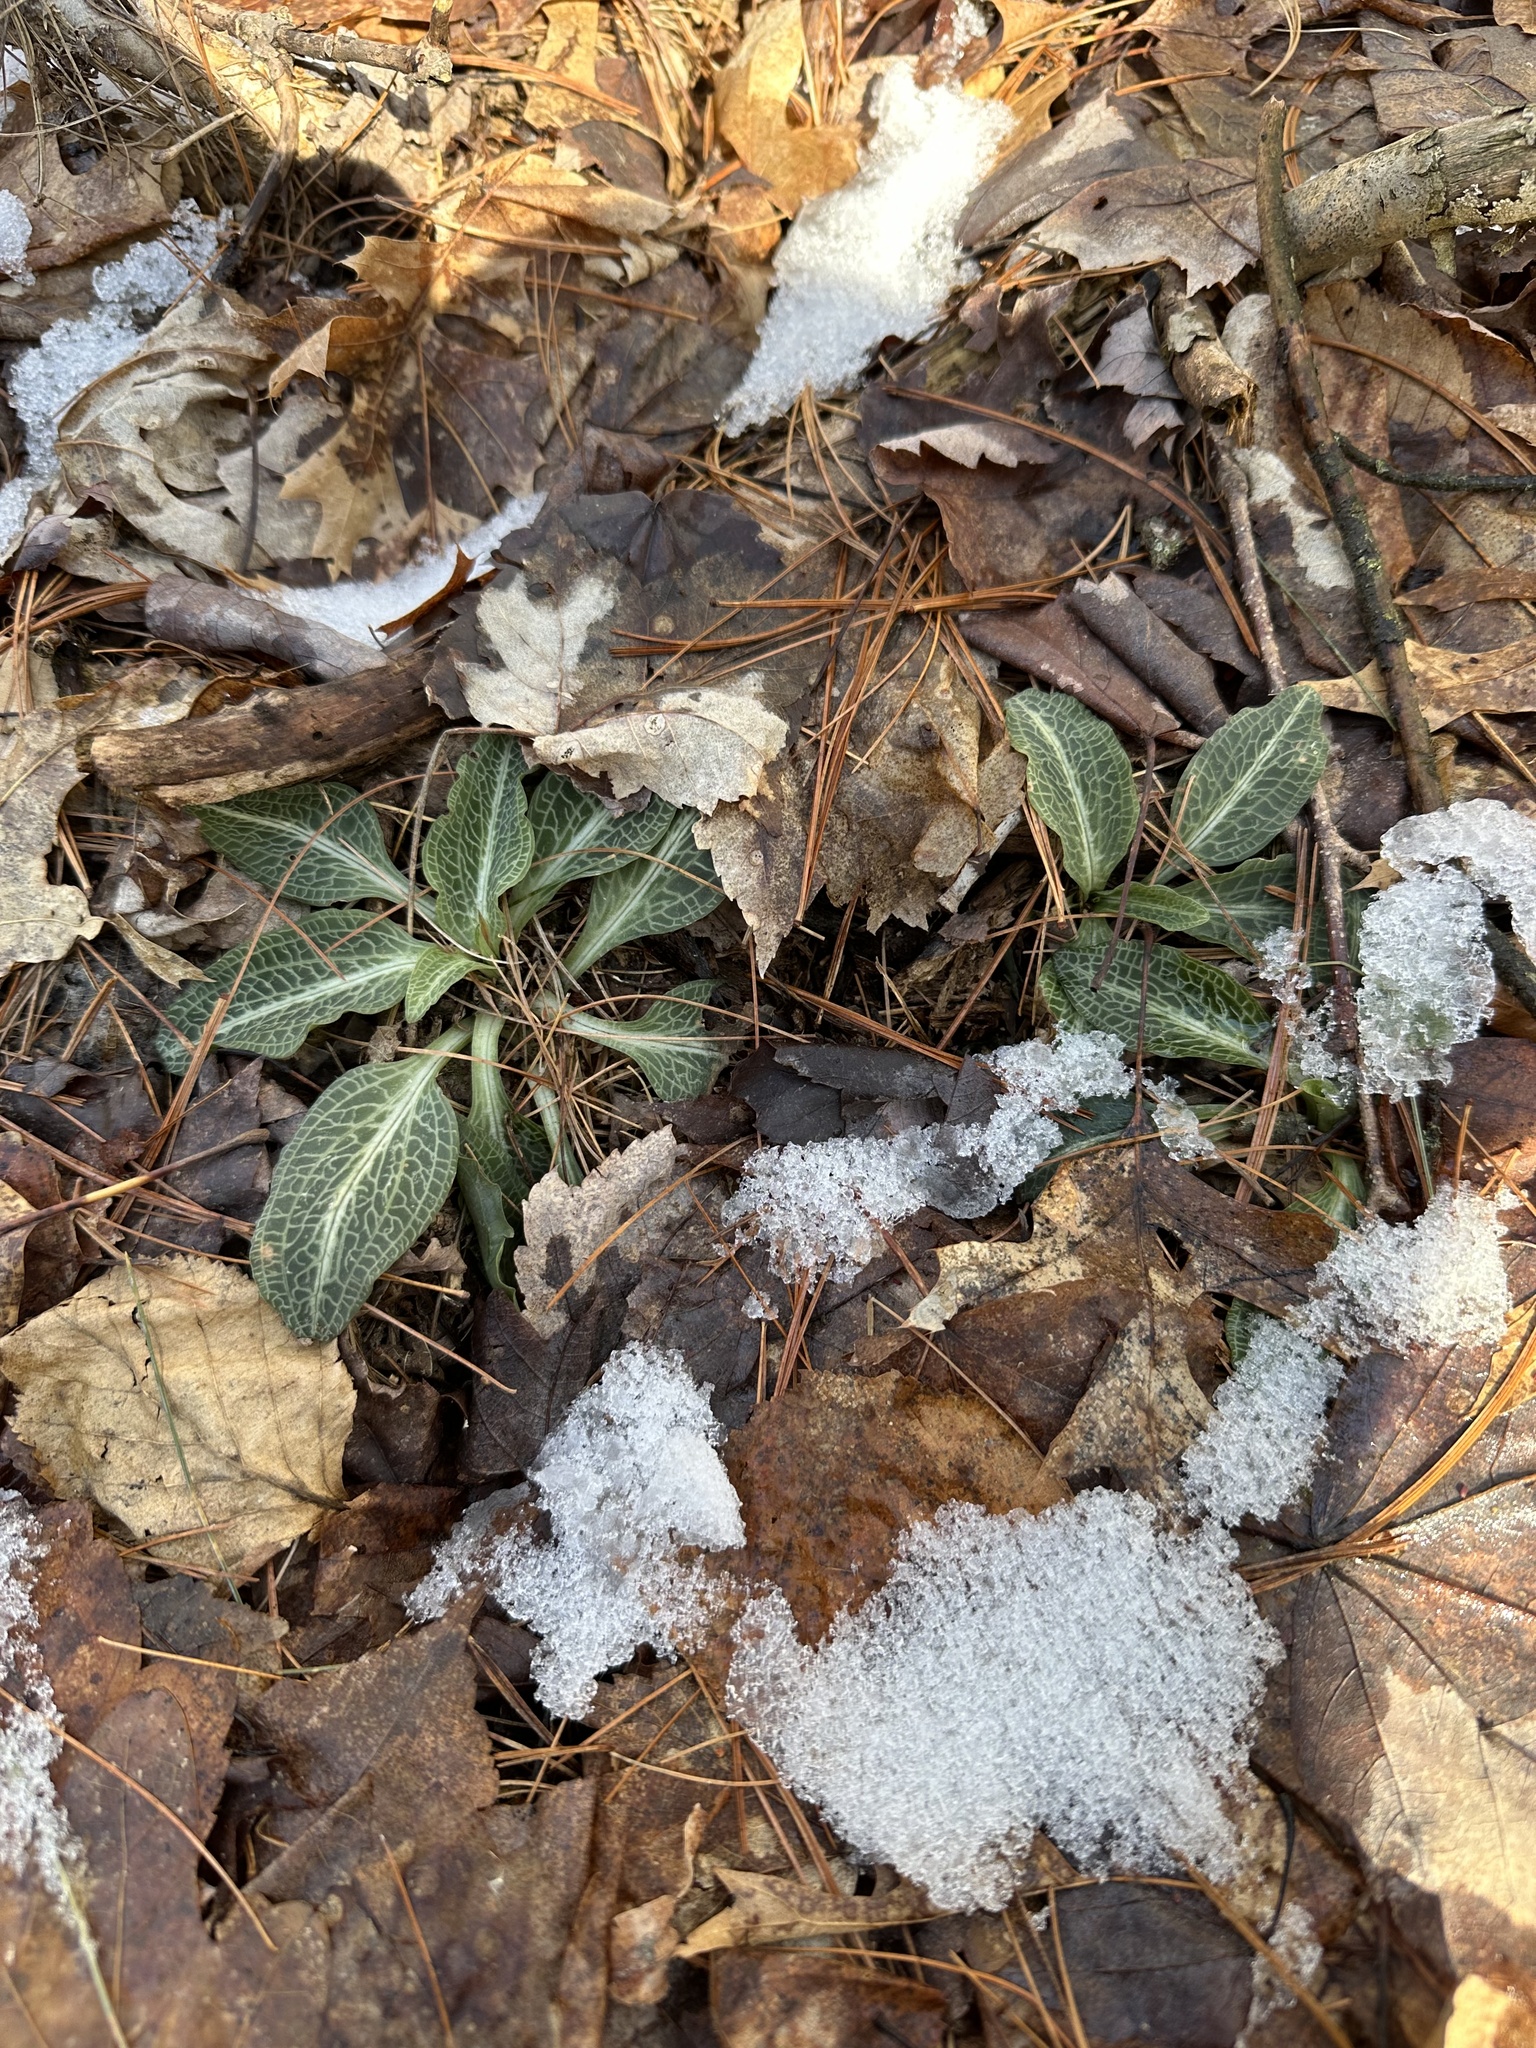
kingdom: Plantae
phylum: Tracheophyta
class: Liliopsida
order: Asparagales
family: Orchidaceae
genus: Goodyera
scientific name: Goodyera pubescens
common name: Downy rattlesnake-plantain
